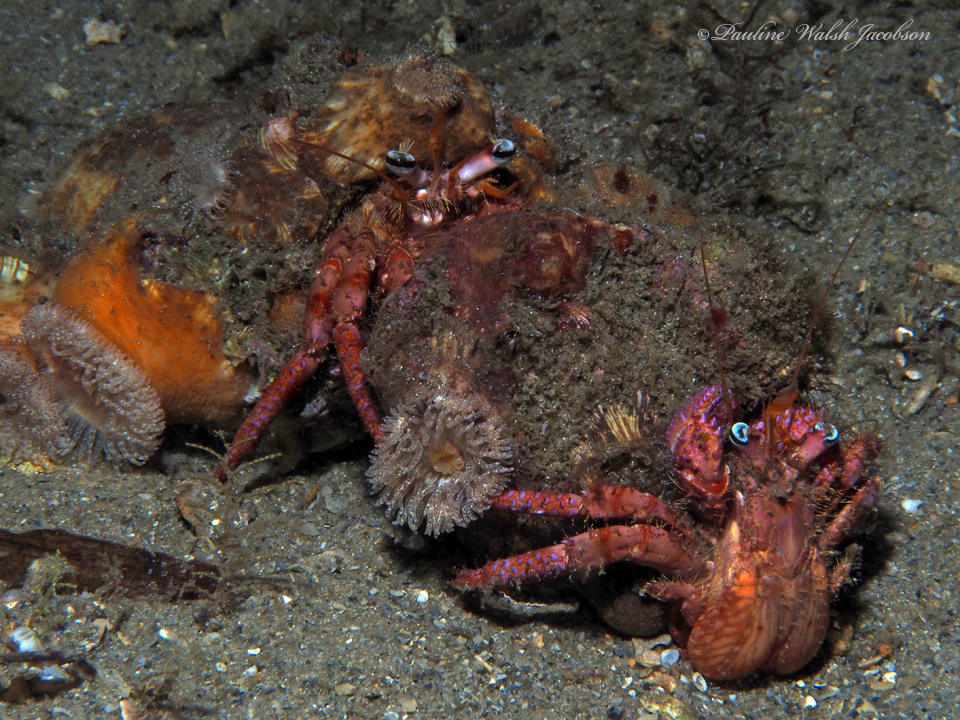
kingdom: Animalia
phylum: Arthropoda
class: Malacostraca
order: Decapoda
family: Diogenidae
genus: Dardanus
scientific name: Dardanus fucosus
